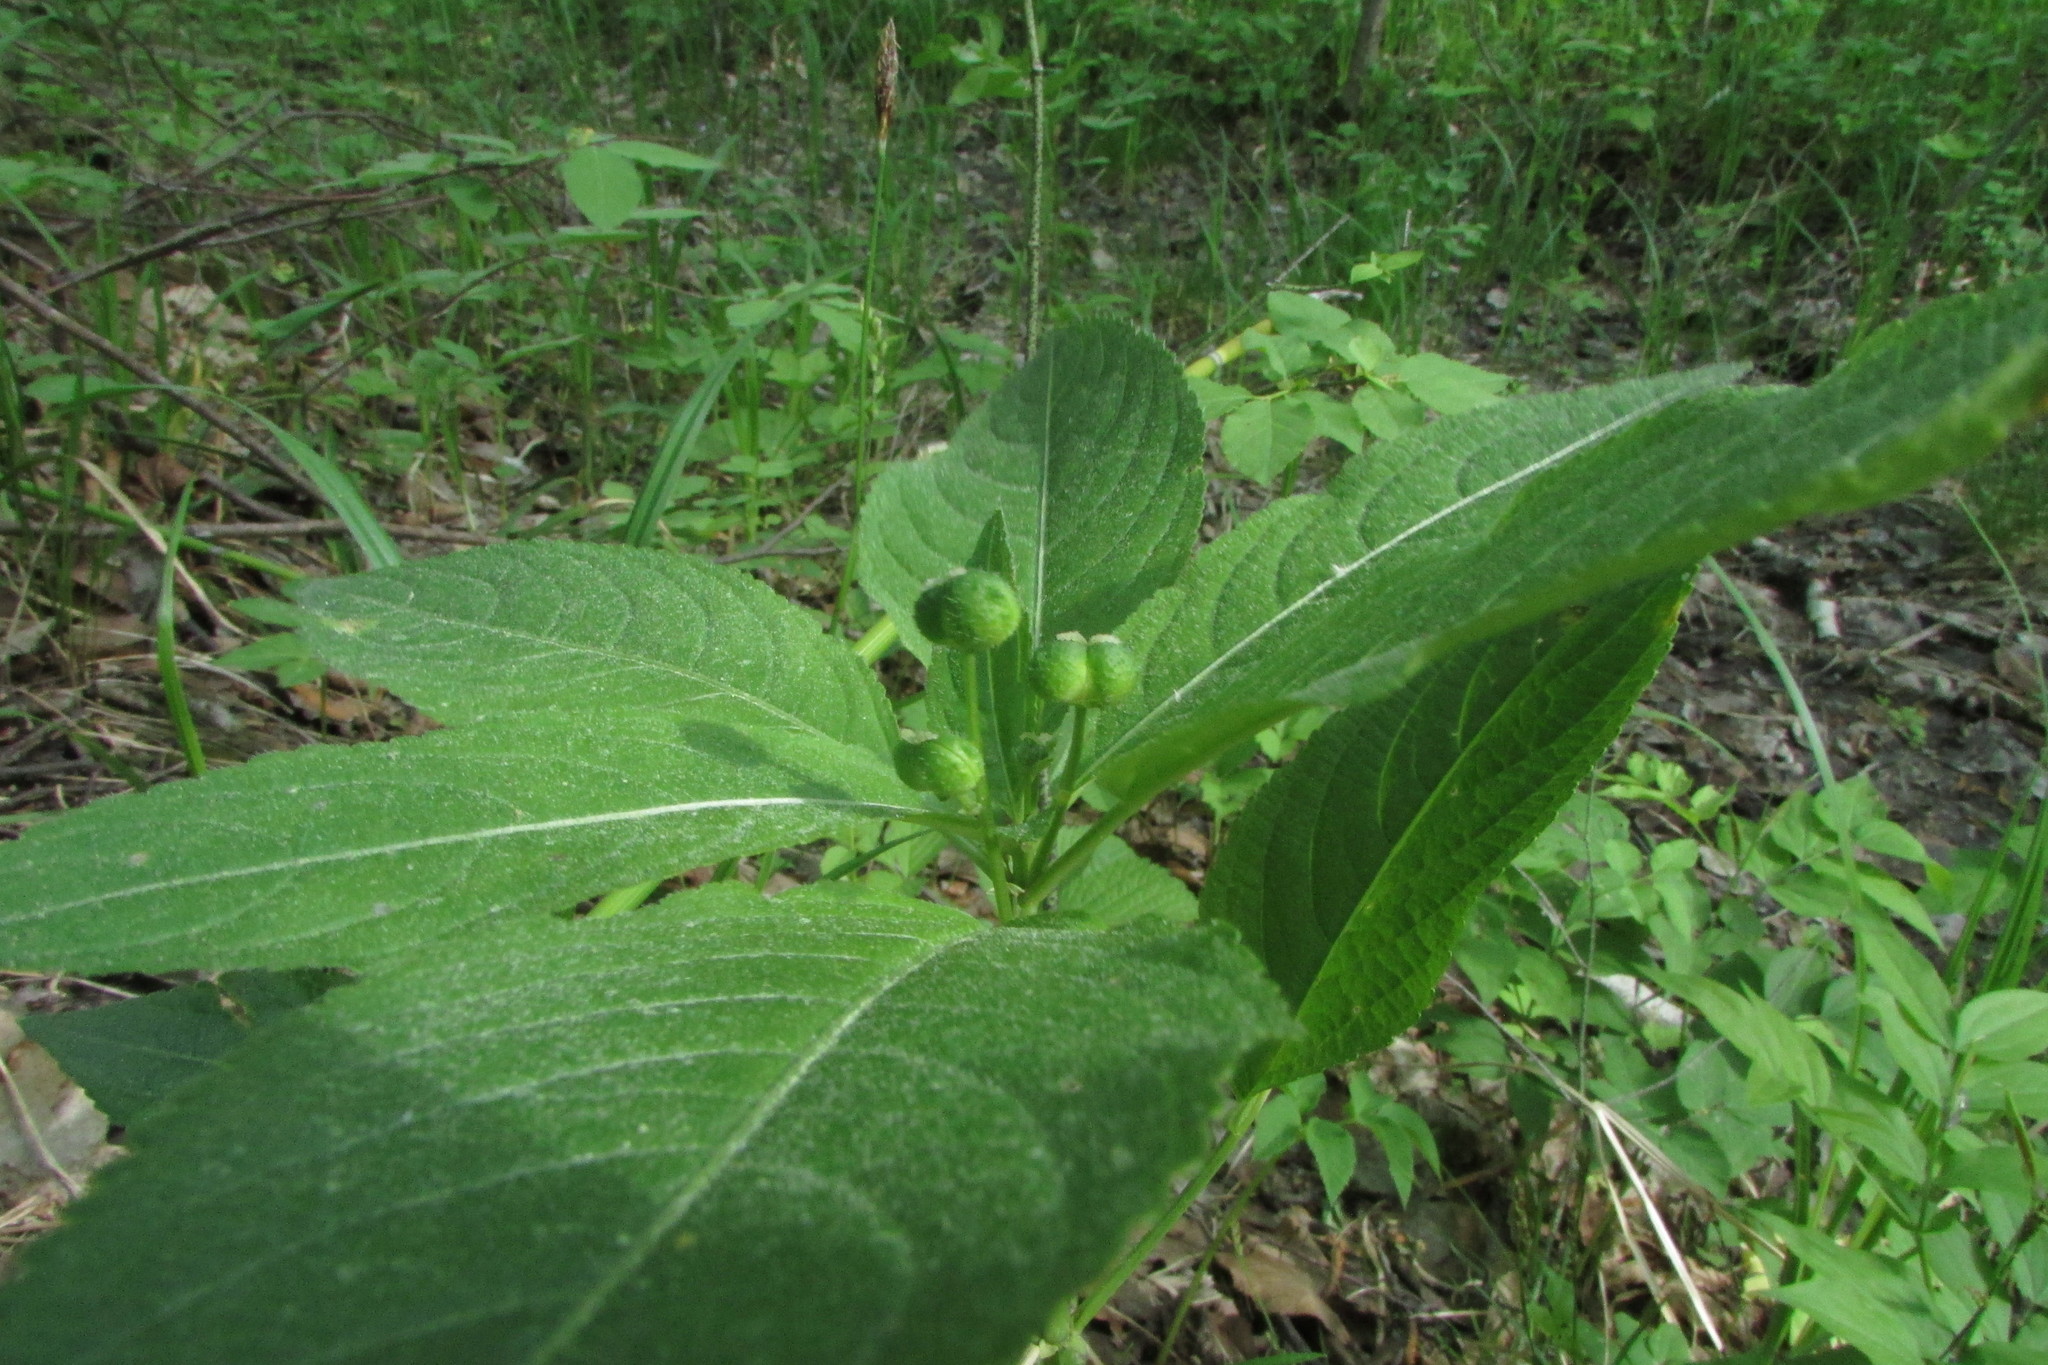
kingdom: Plantae
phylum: Tracheophyta
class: Magnoliopsida
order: Malpighiales
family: Euphorbiaceae
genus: Mercurialis
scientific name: Mercurialis perennis
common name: Dog mercury
